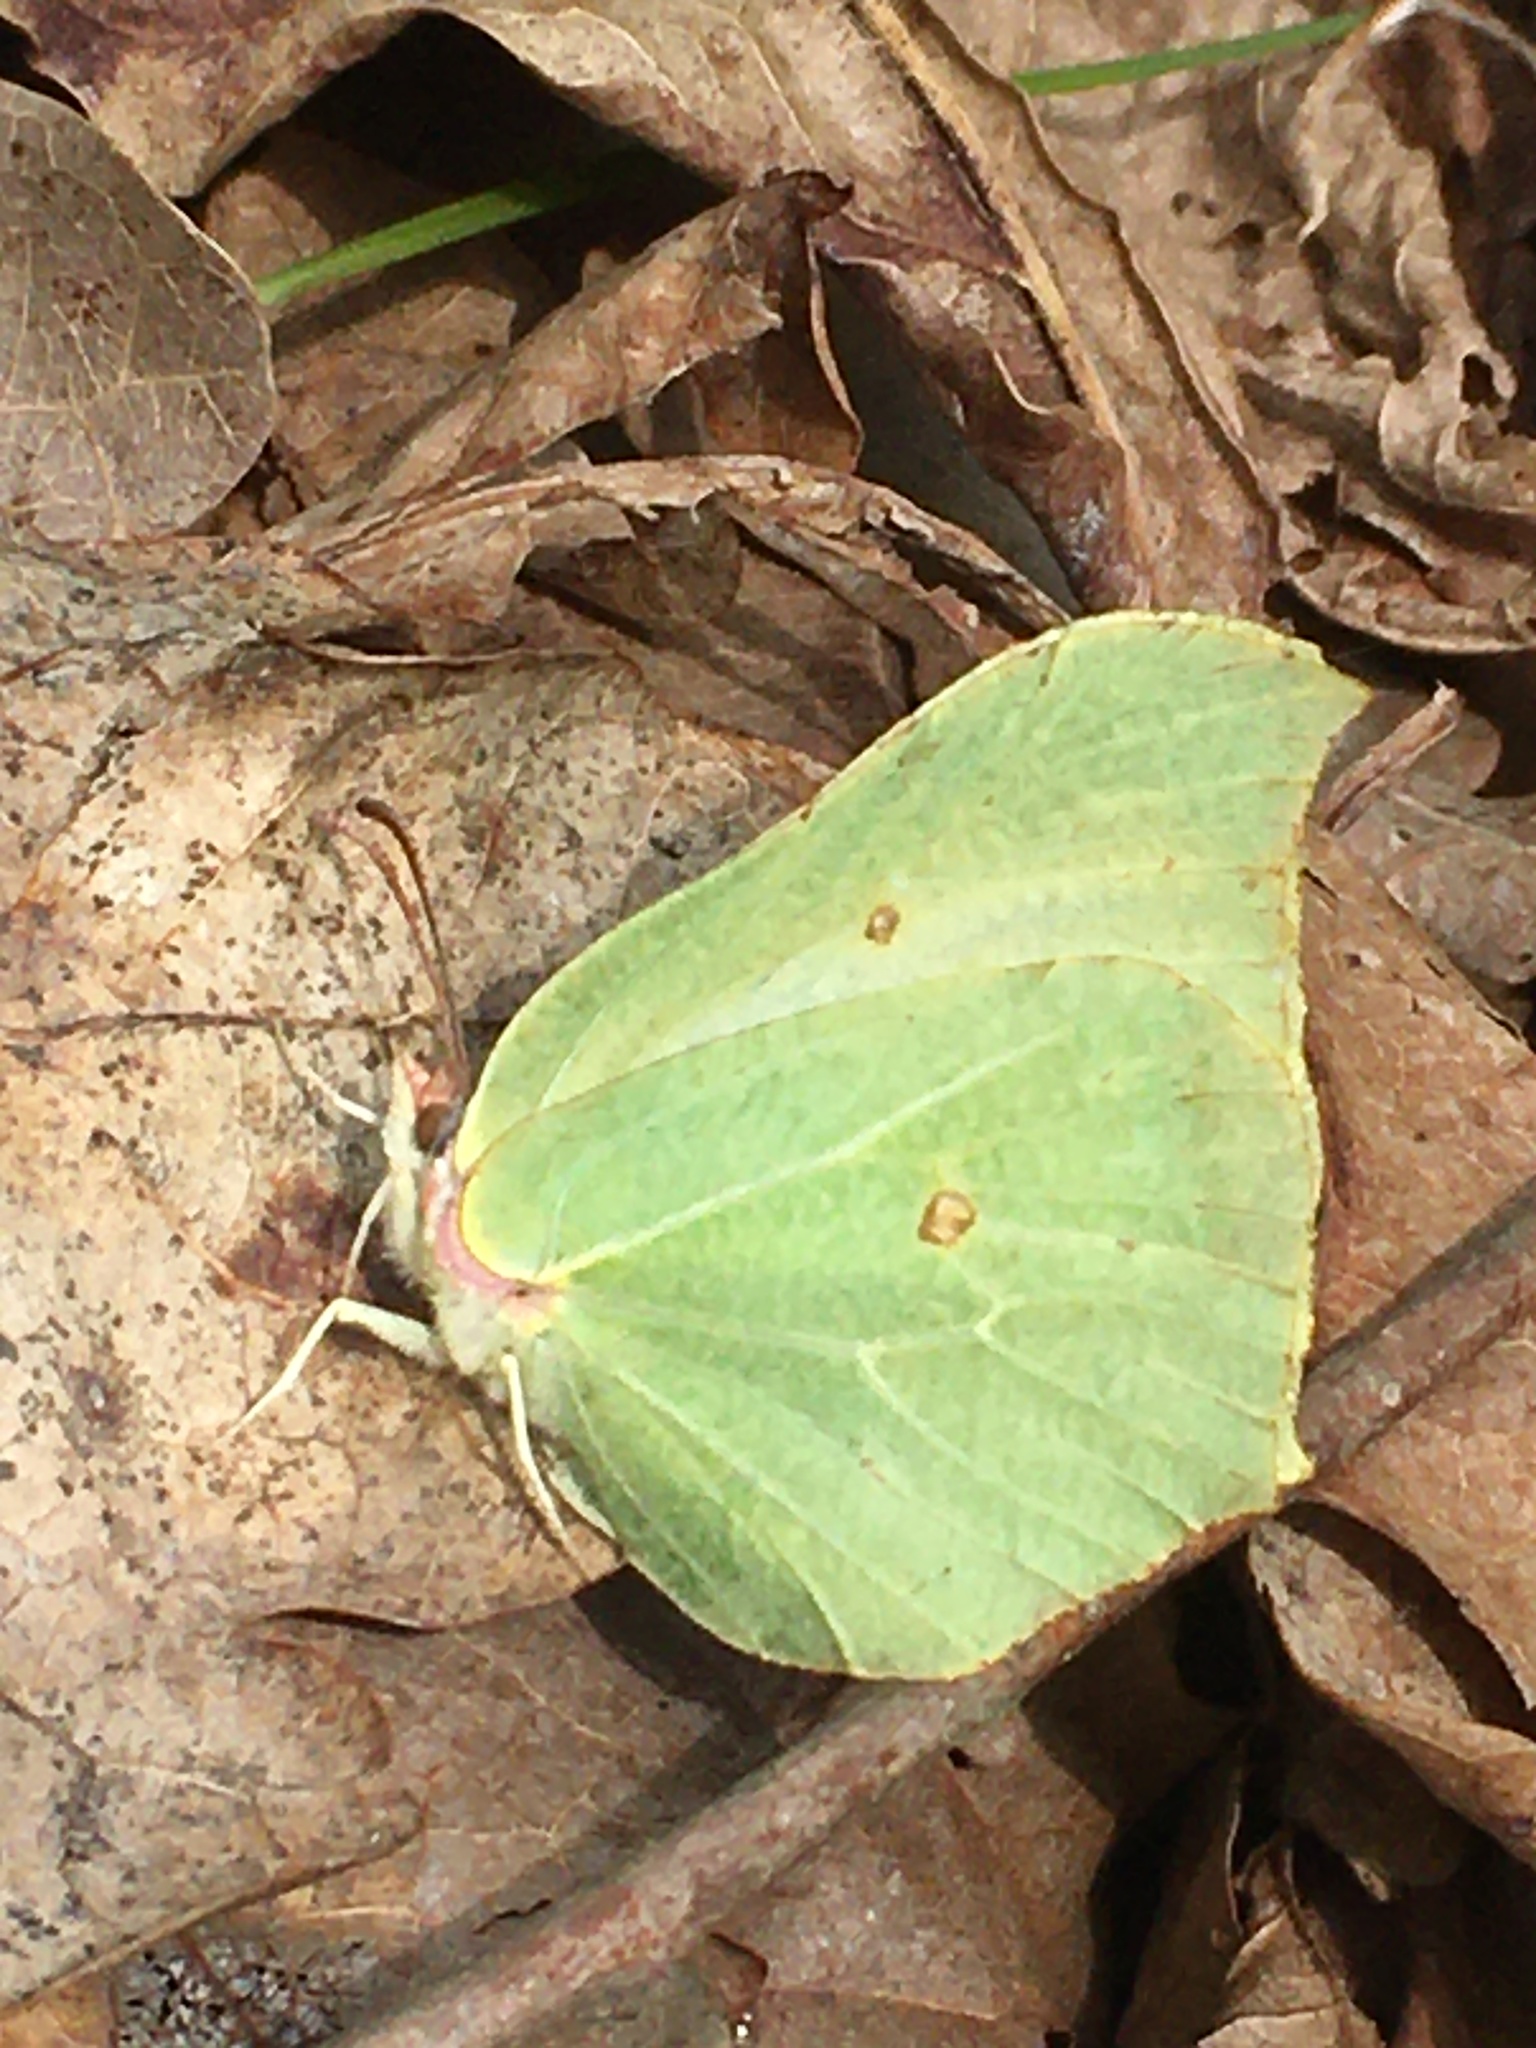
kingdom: Animalia
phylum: Arthropoda
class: Insecta
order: Lepidoptera
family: Pieridae
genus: Gonepteryx
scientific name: Gonepteryx rhamni
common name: Brimstone
